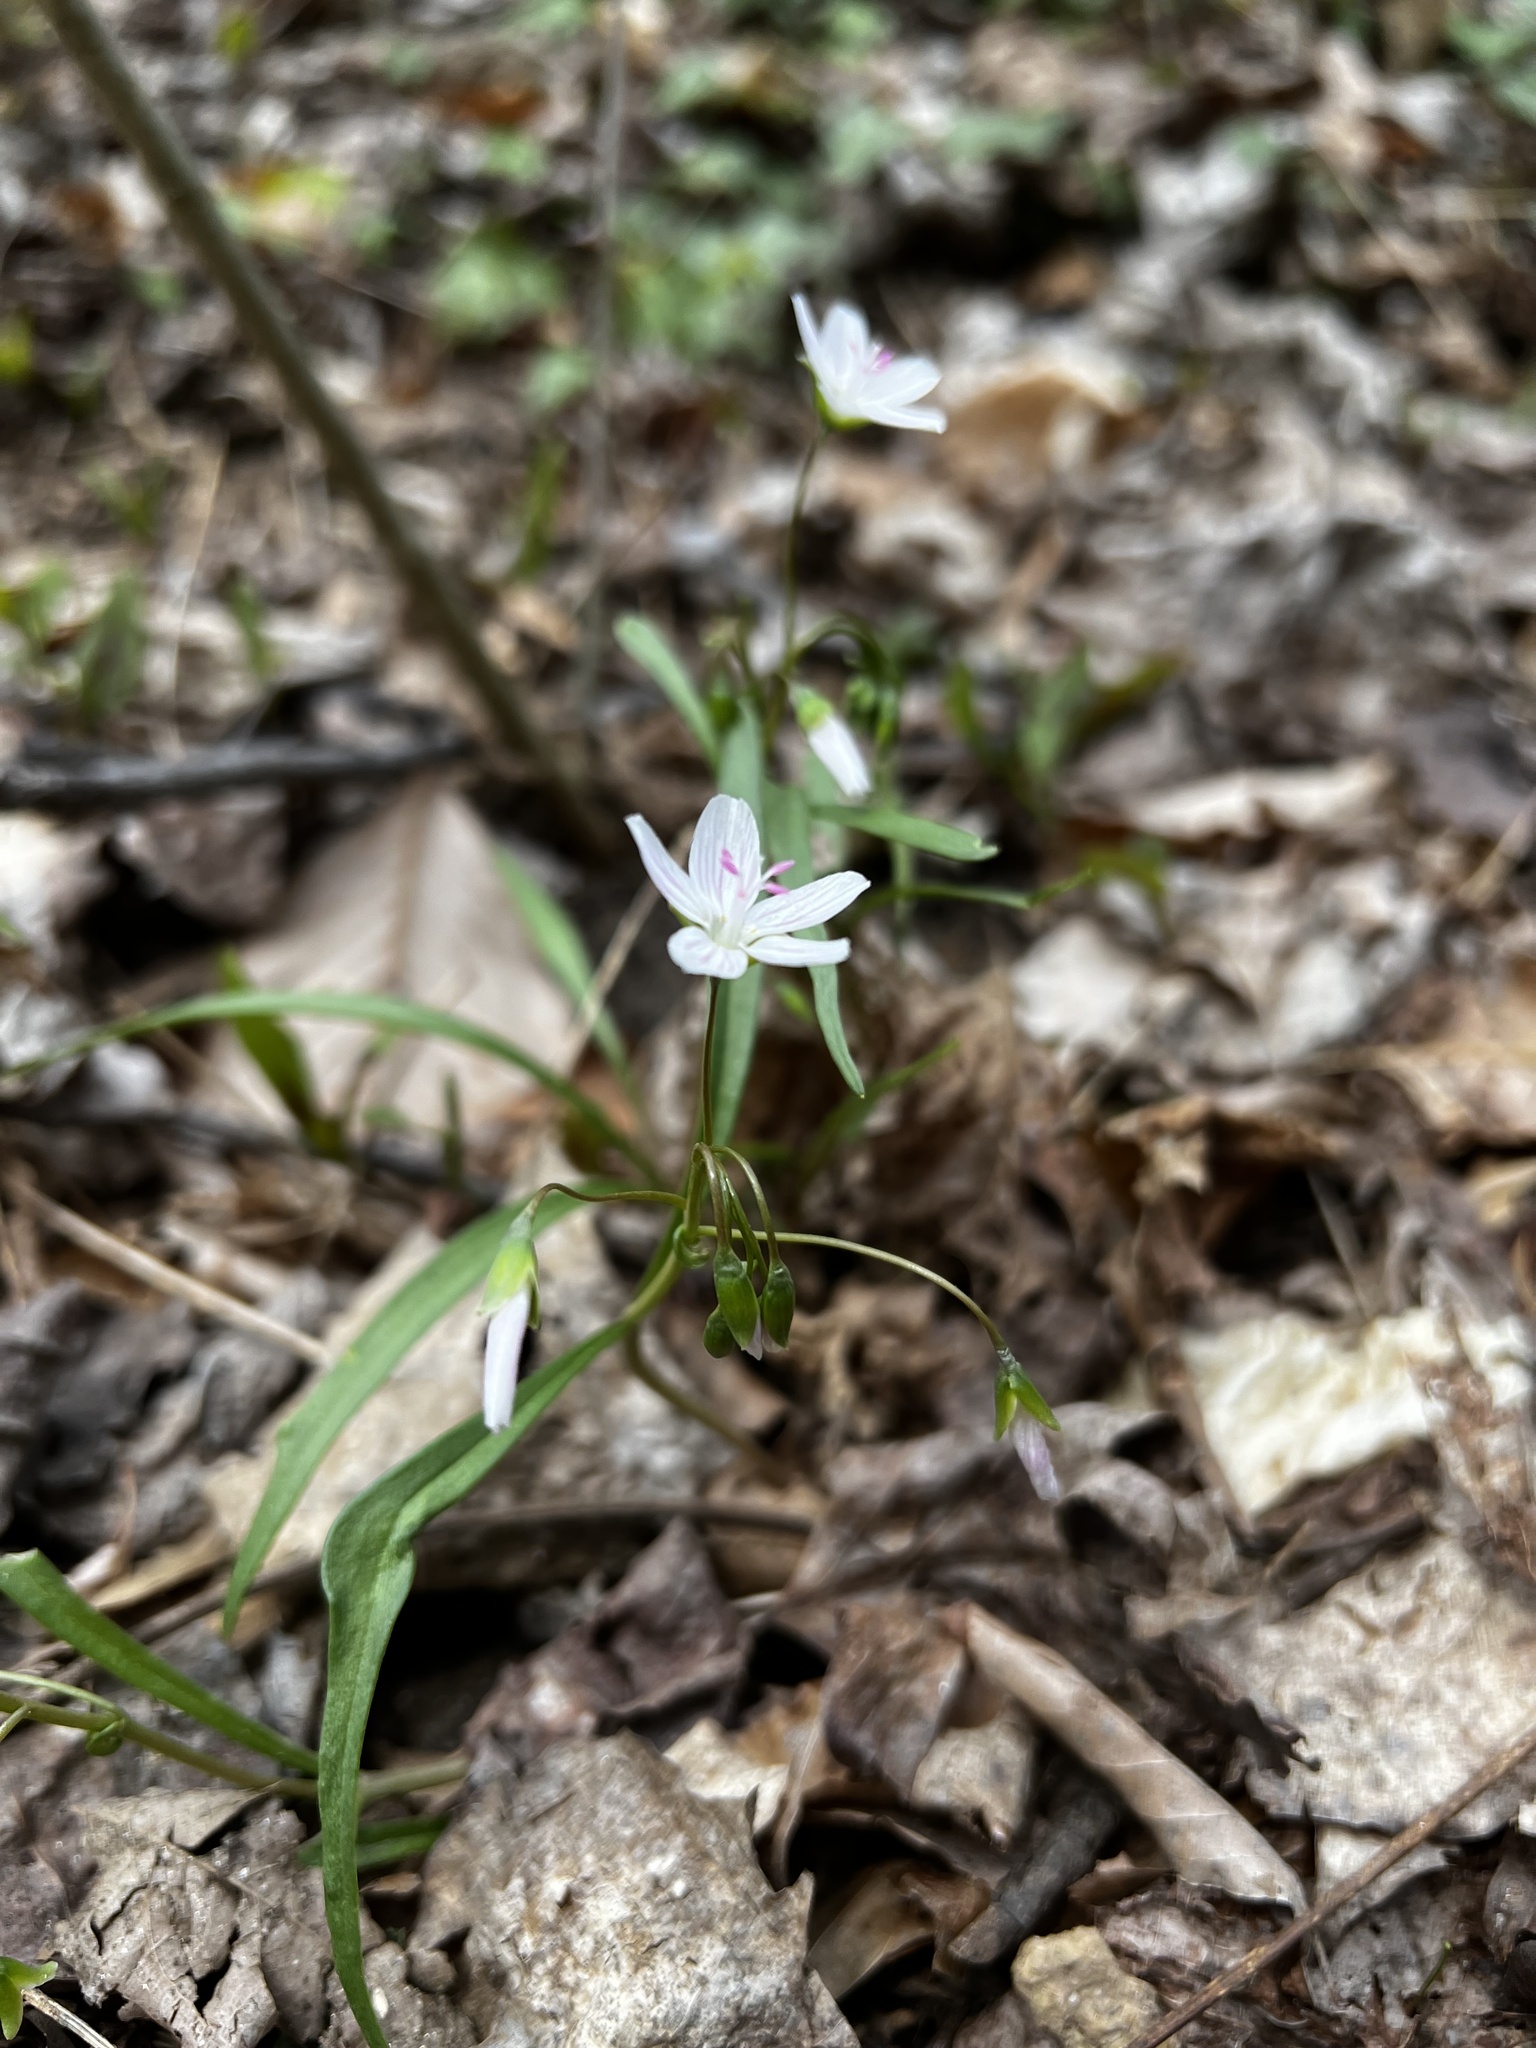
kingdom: Plantae
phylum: Tracheophyta
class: Magnoliopsida
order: Caryophyllales
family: Montiaceae
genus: Claytonia
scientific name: Claytonia virginica
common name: Virginia springbeauty
